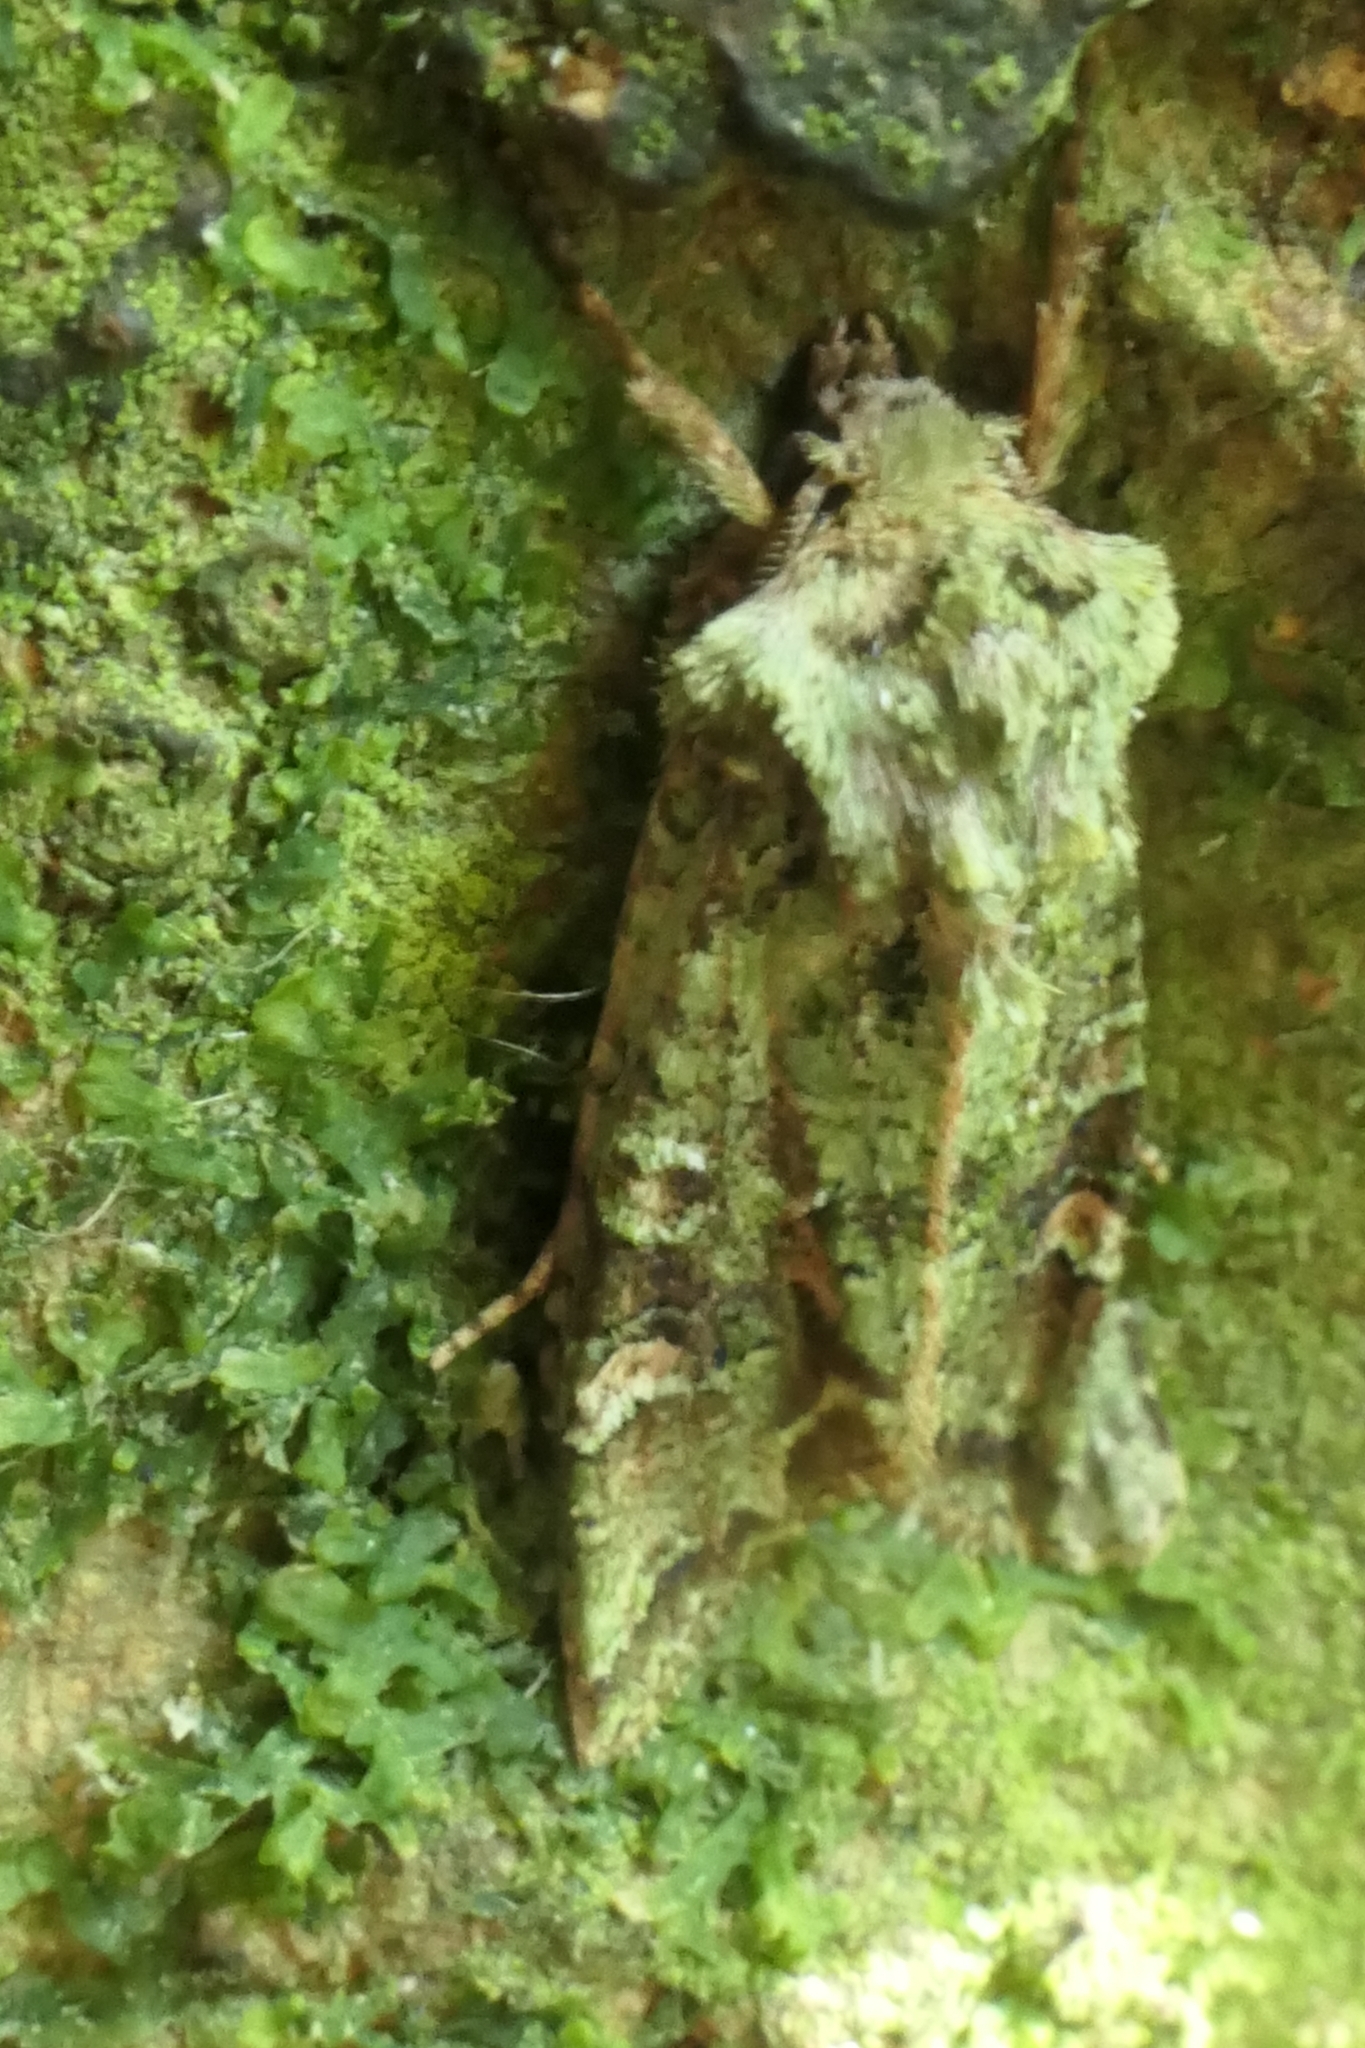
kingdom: Animalia
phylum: Arthropoda
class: Insecta
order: Lepidoptera
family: Noctuidae
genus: Ichneutica
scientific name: Ichneutica
